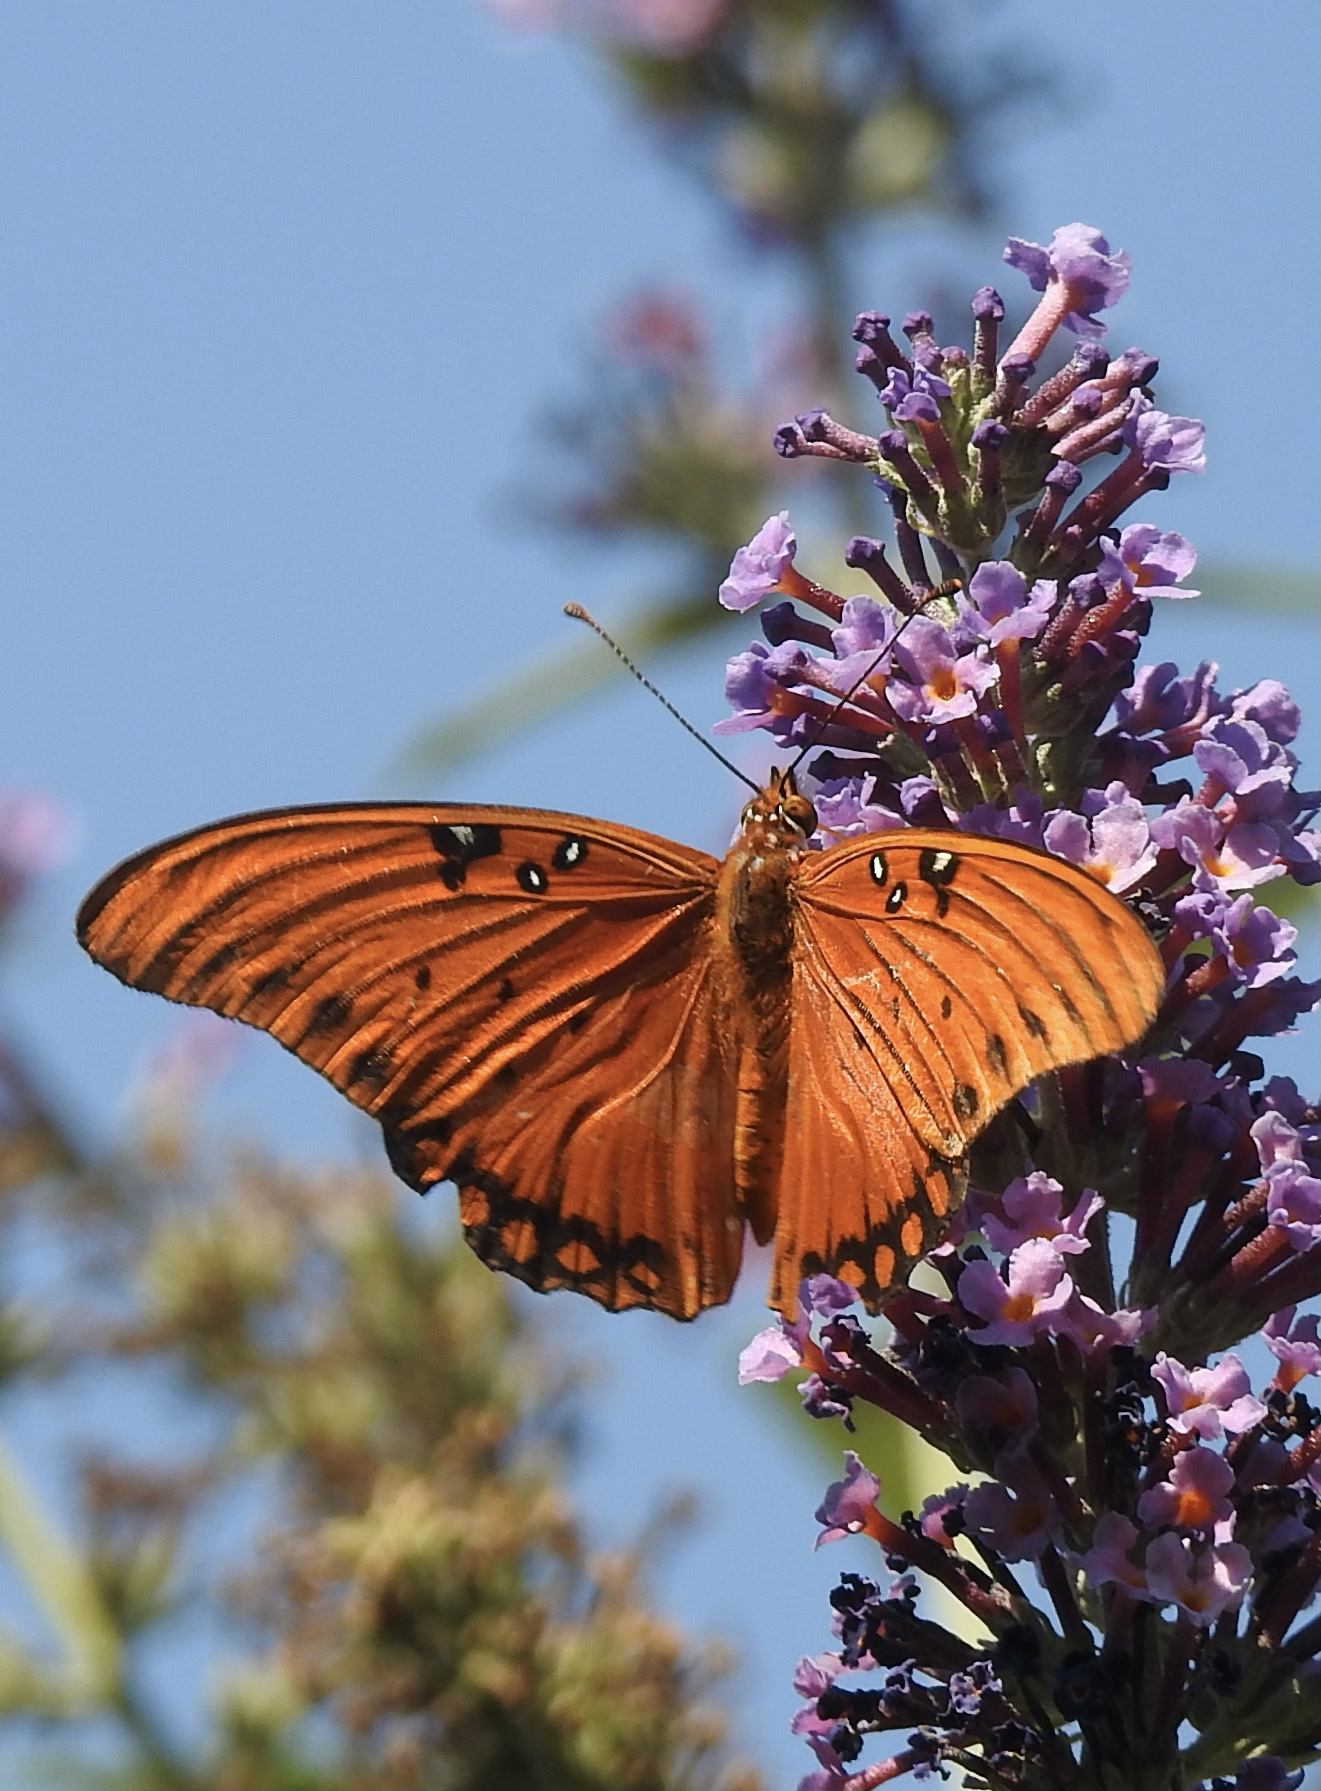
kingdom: Animalia
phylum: Arthropoda
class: Insecta
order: Lepidoptera
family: Nymphalidae
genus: Dione
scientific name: Dione vanillae
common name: Gulf fritillary
